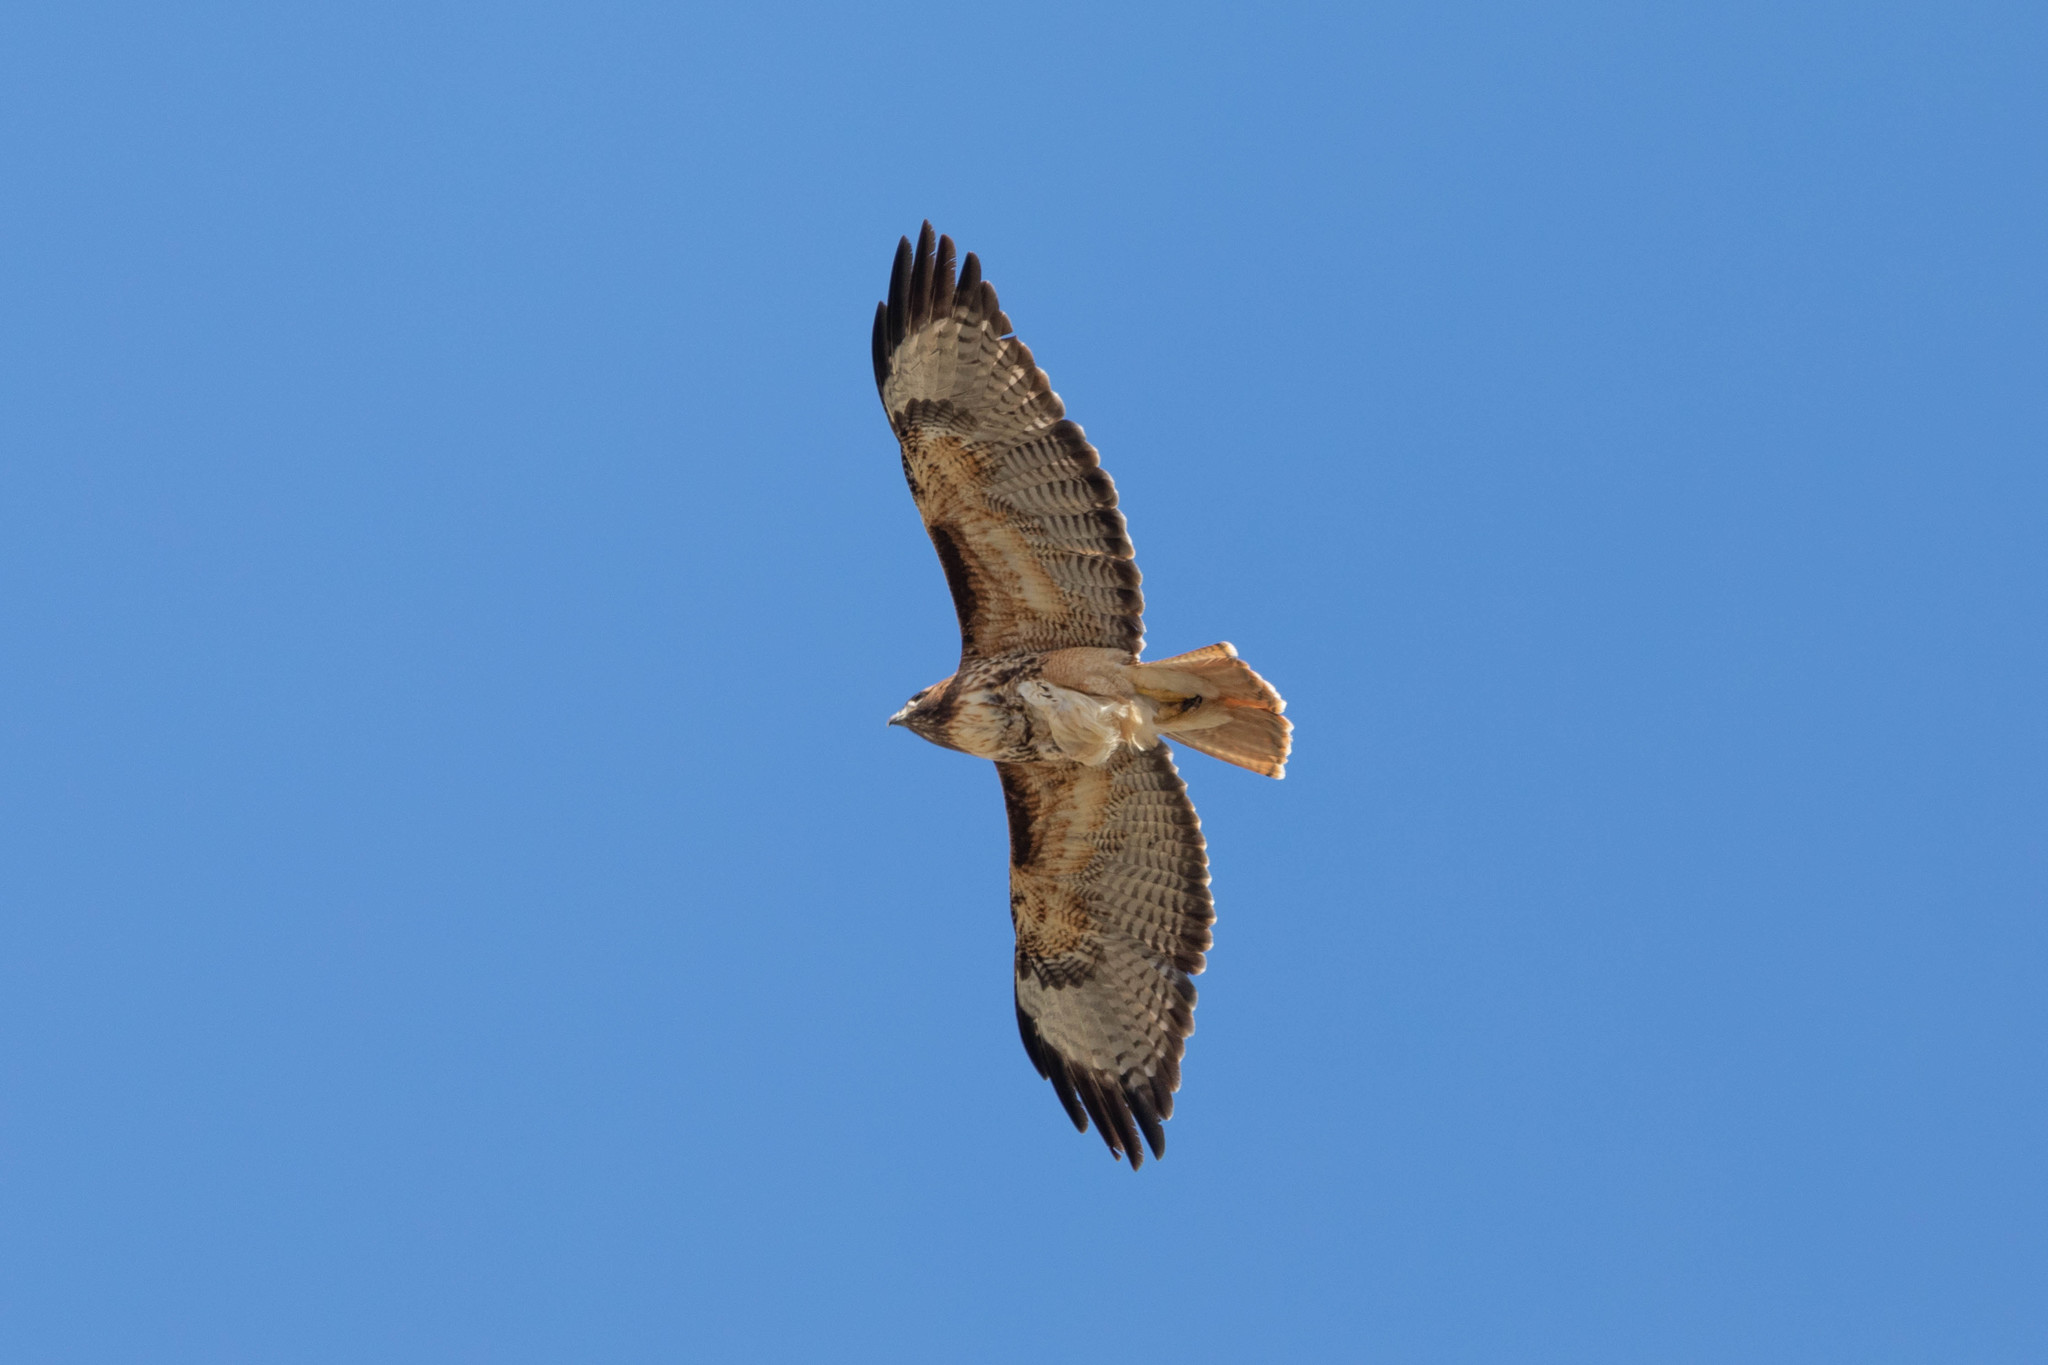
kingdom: Animalia
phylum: Chordata
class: Aves
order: Accipitriformes
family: Accipitridae
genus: Buteo
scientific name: Buteo jamaicensis
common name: Red-tailed hawk
